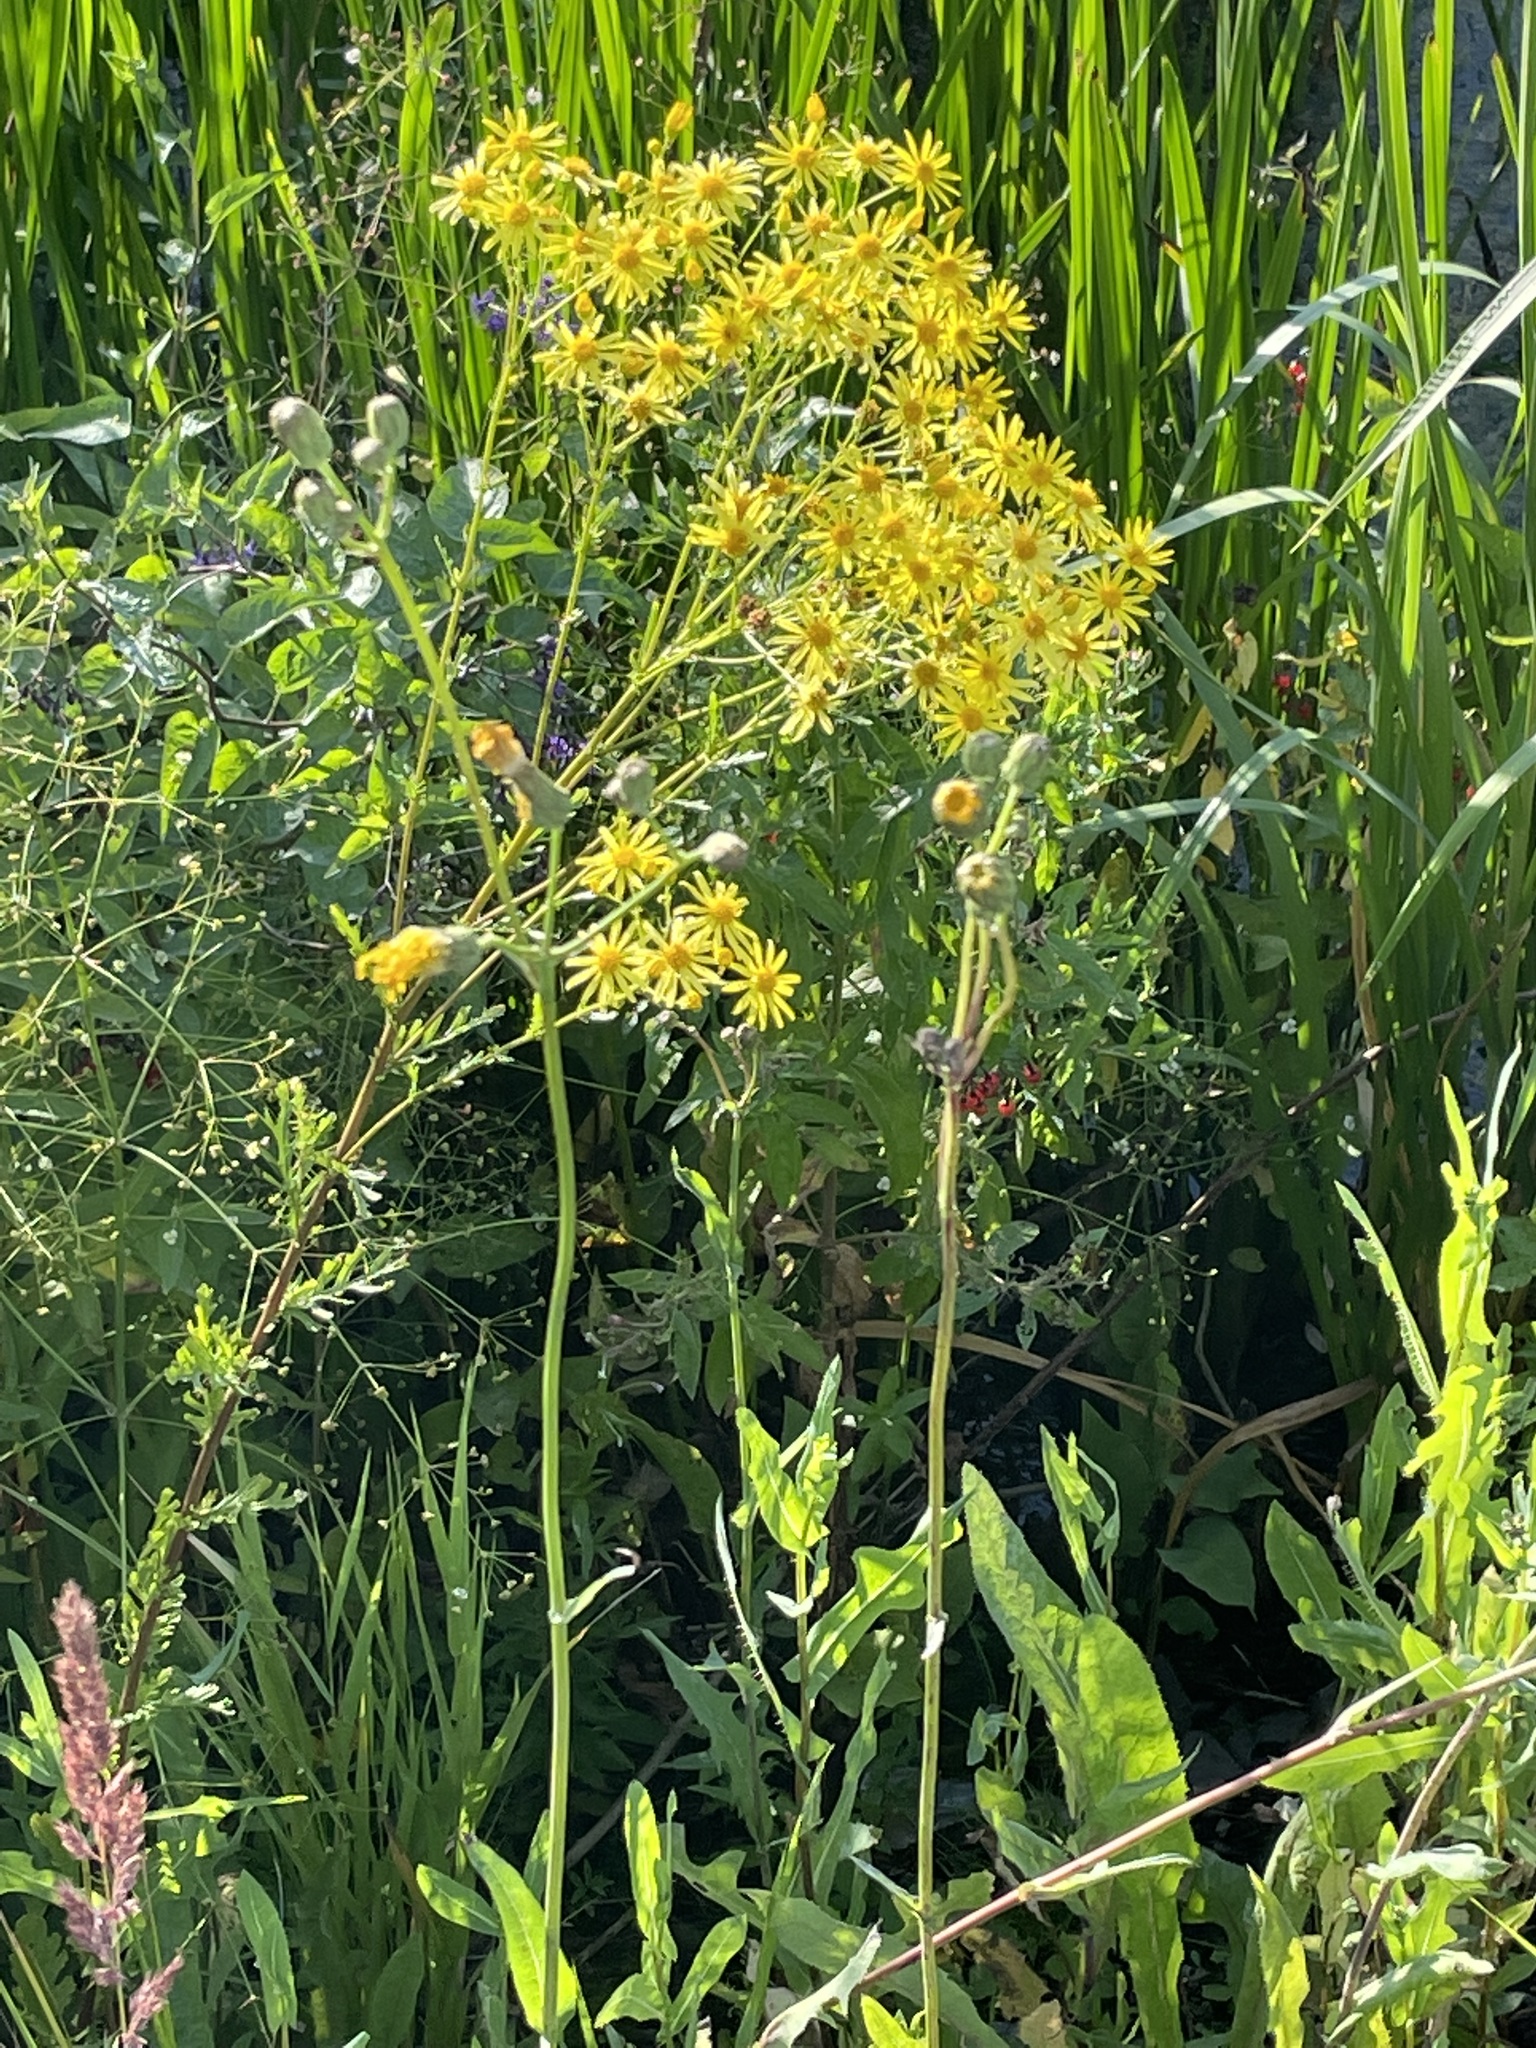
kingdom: Plantae
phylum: Tracheophyta
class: Magnoliopsida
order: Asterales
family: Asteraceae
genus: Jacobaea
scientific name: Jacobaea vulgaris
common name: Stinking willie
